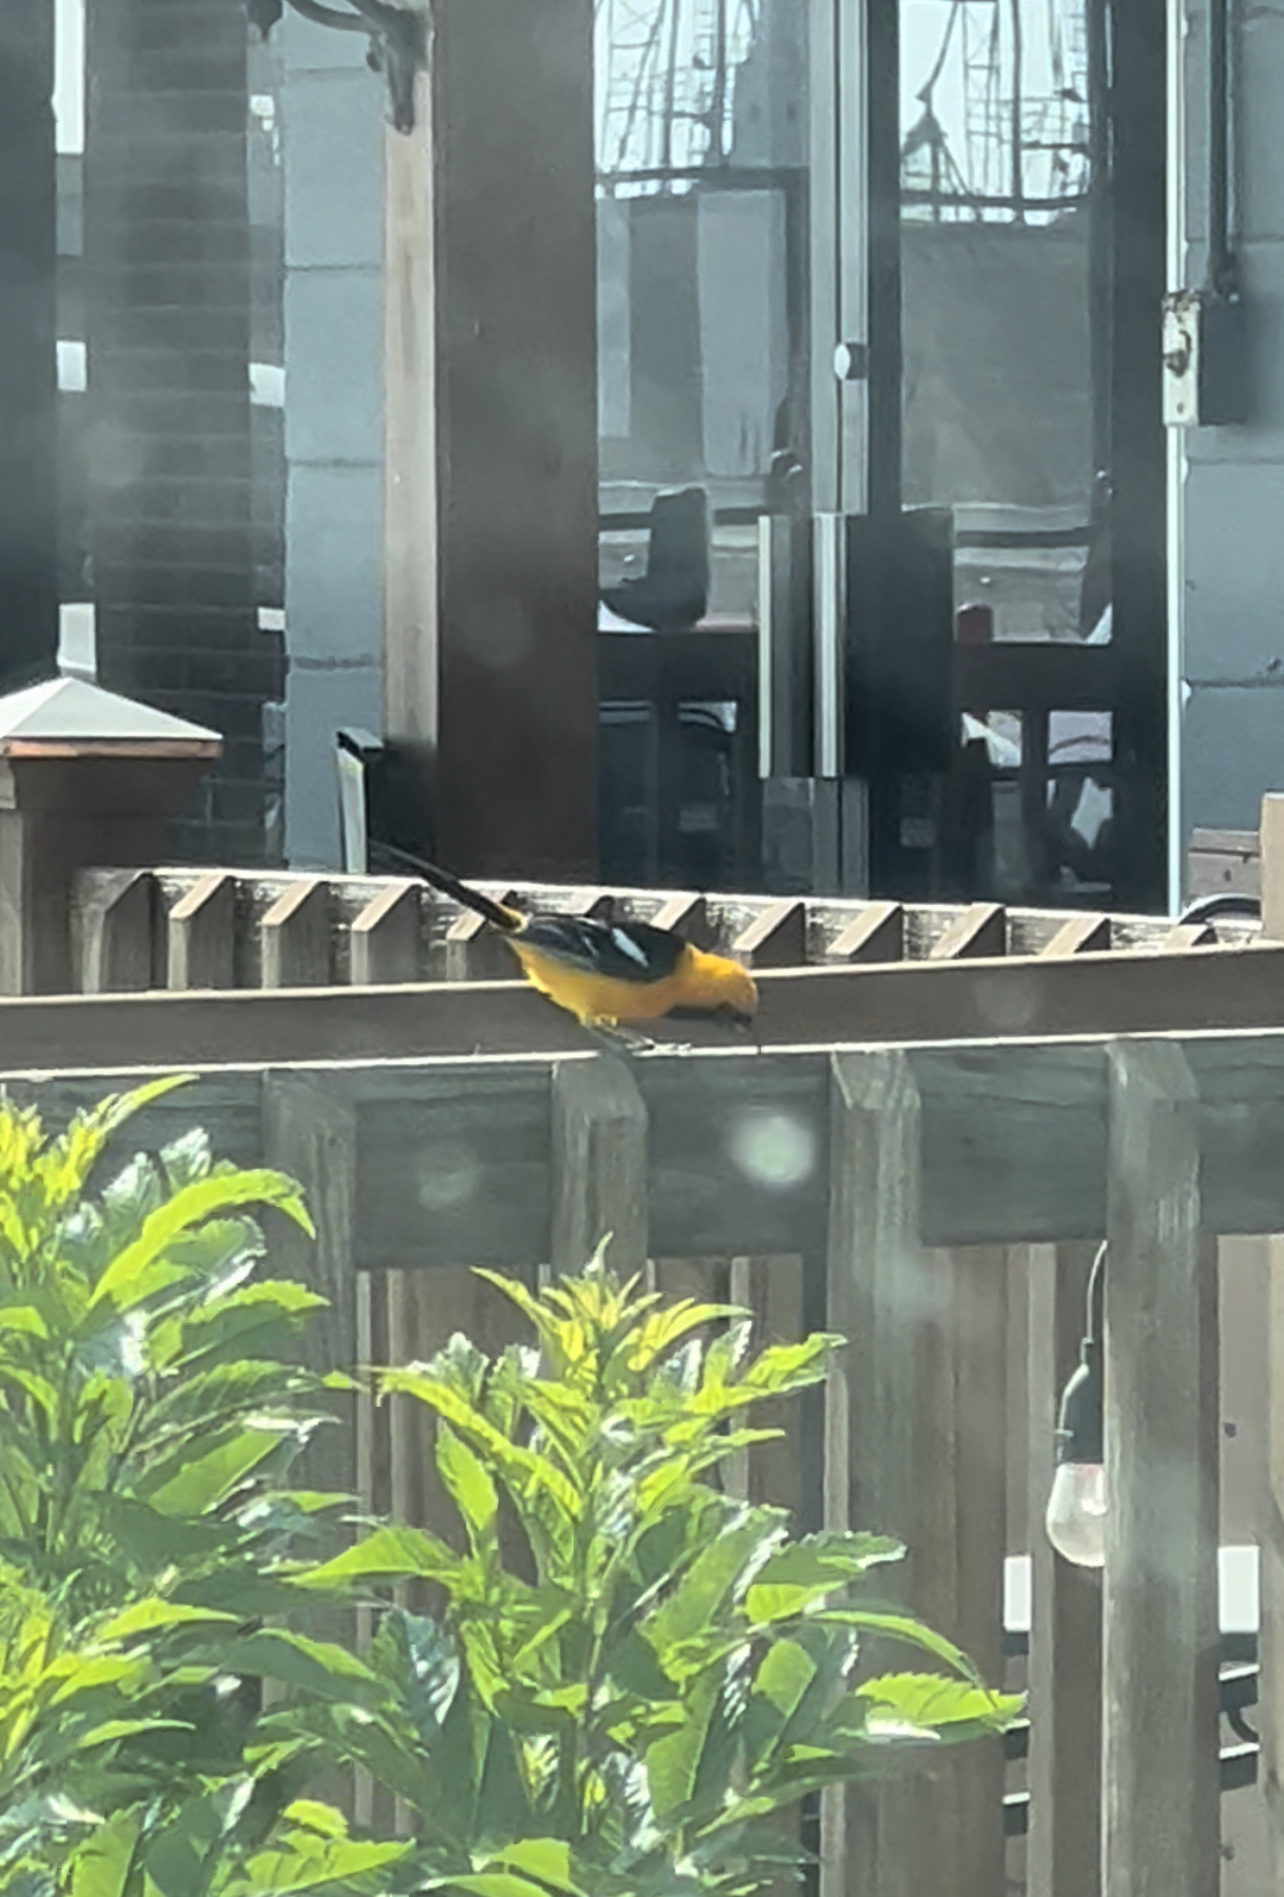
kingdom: Animalia
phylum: Chordata
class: Aves
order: Passeriformes
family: Icteridae
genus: Icterus
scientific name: Icterus cucullatus
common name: Hooded oriole
